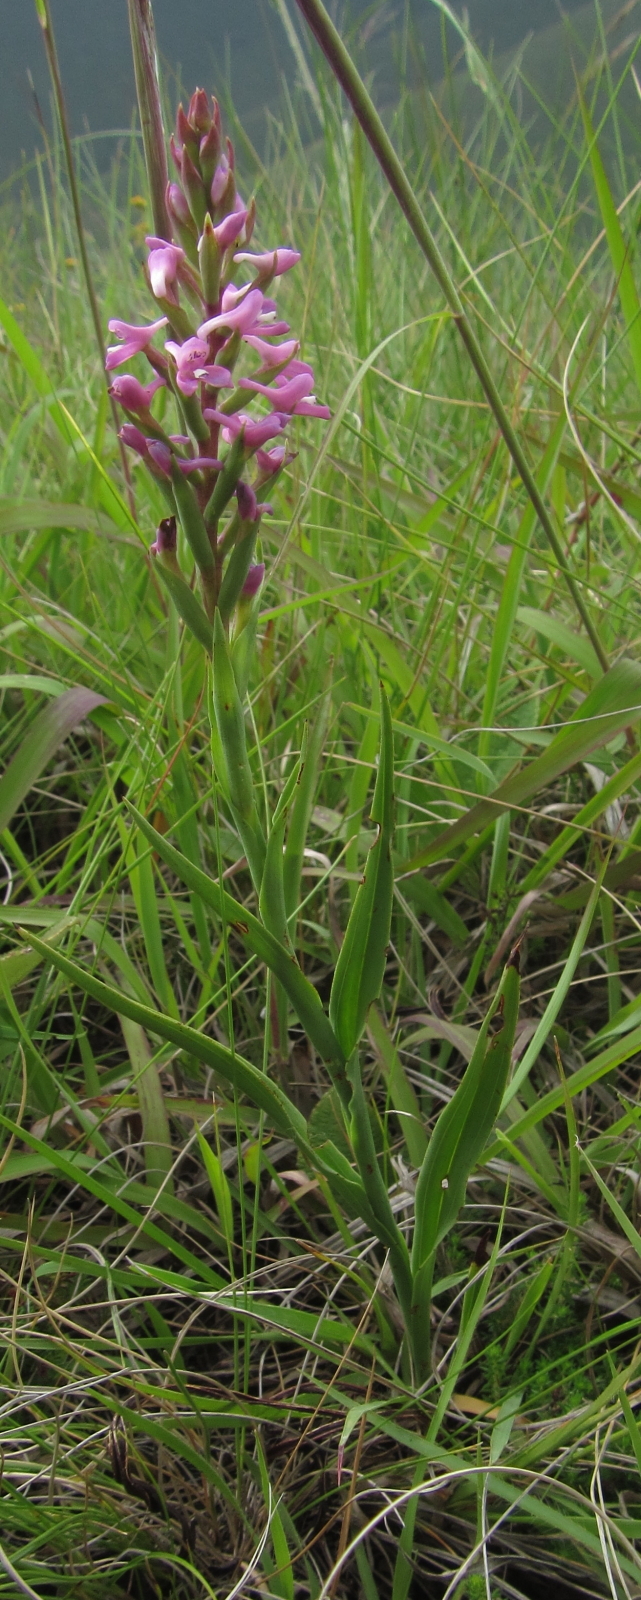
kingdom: Plantae
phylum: Tracheophyta
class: Liliopsida
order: Asparagales
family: Orchidaceae
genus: Disa
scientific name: Disa stachyoides
